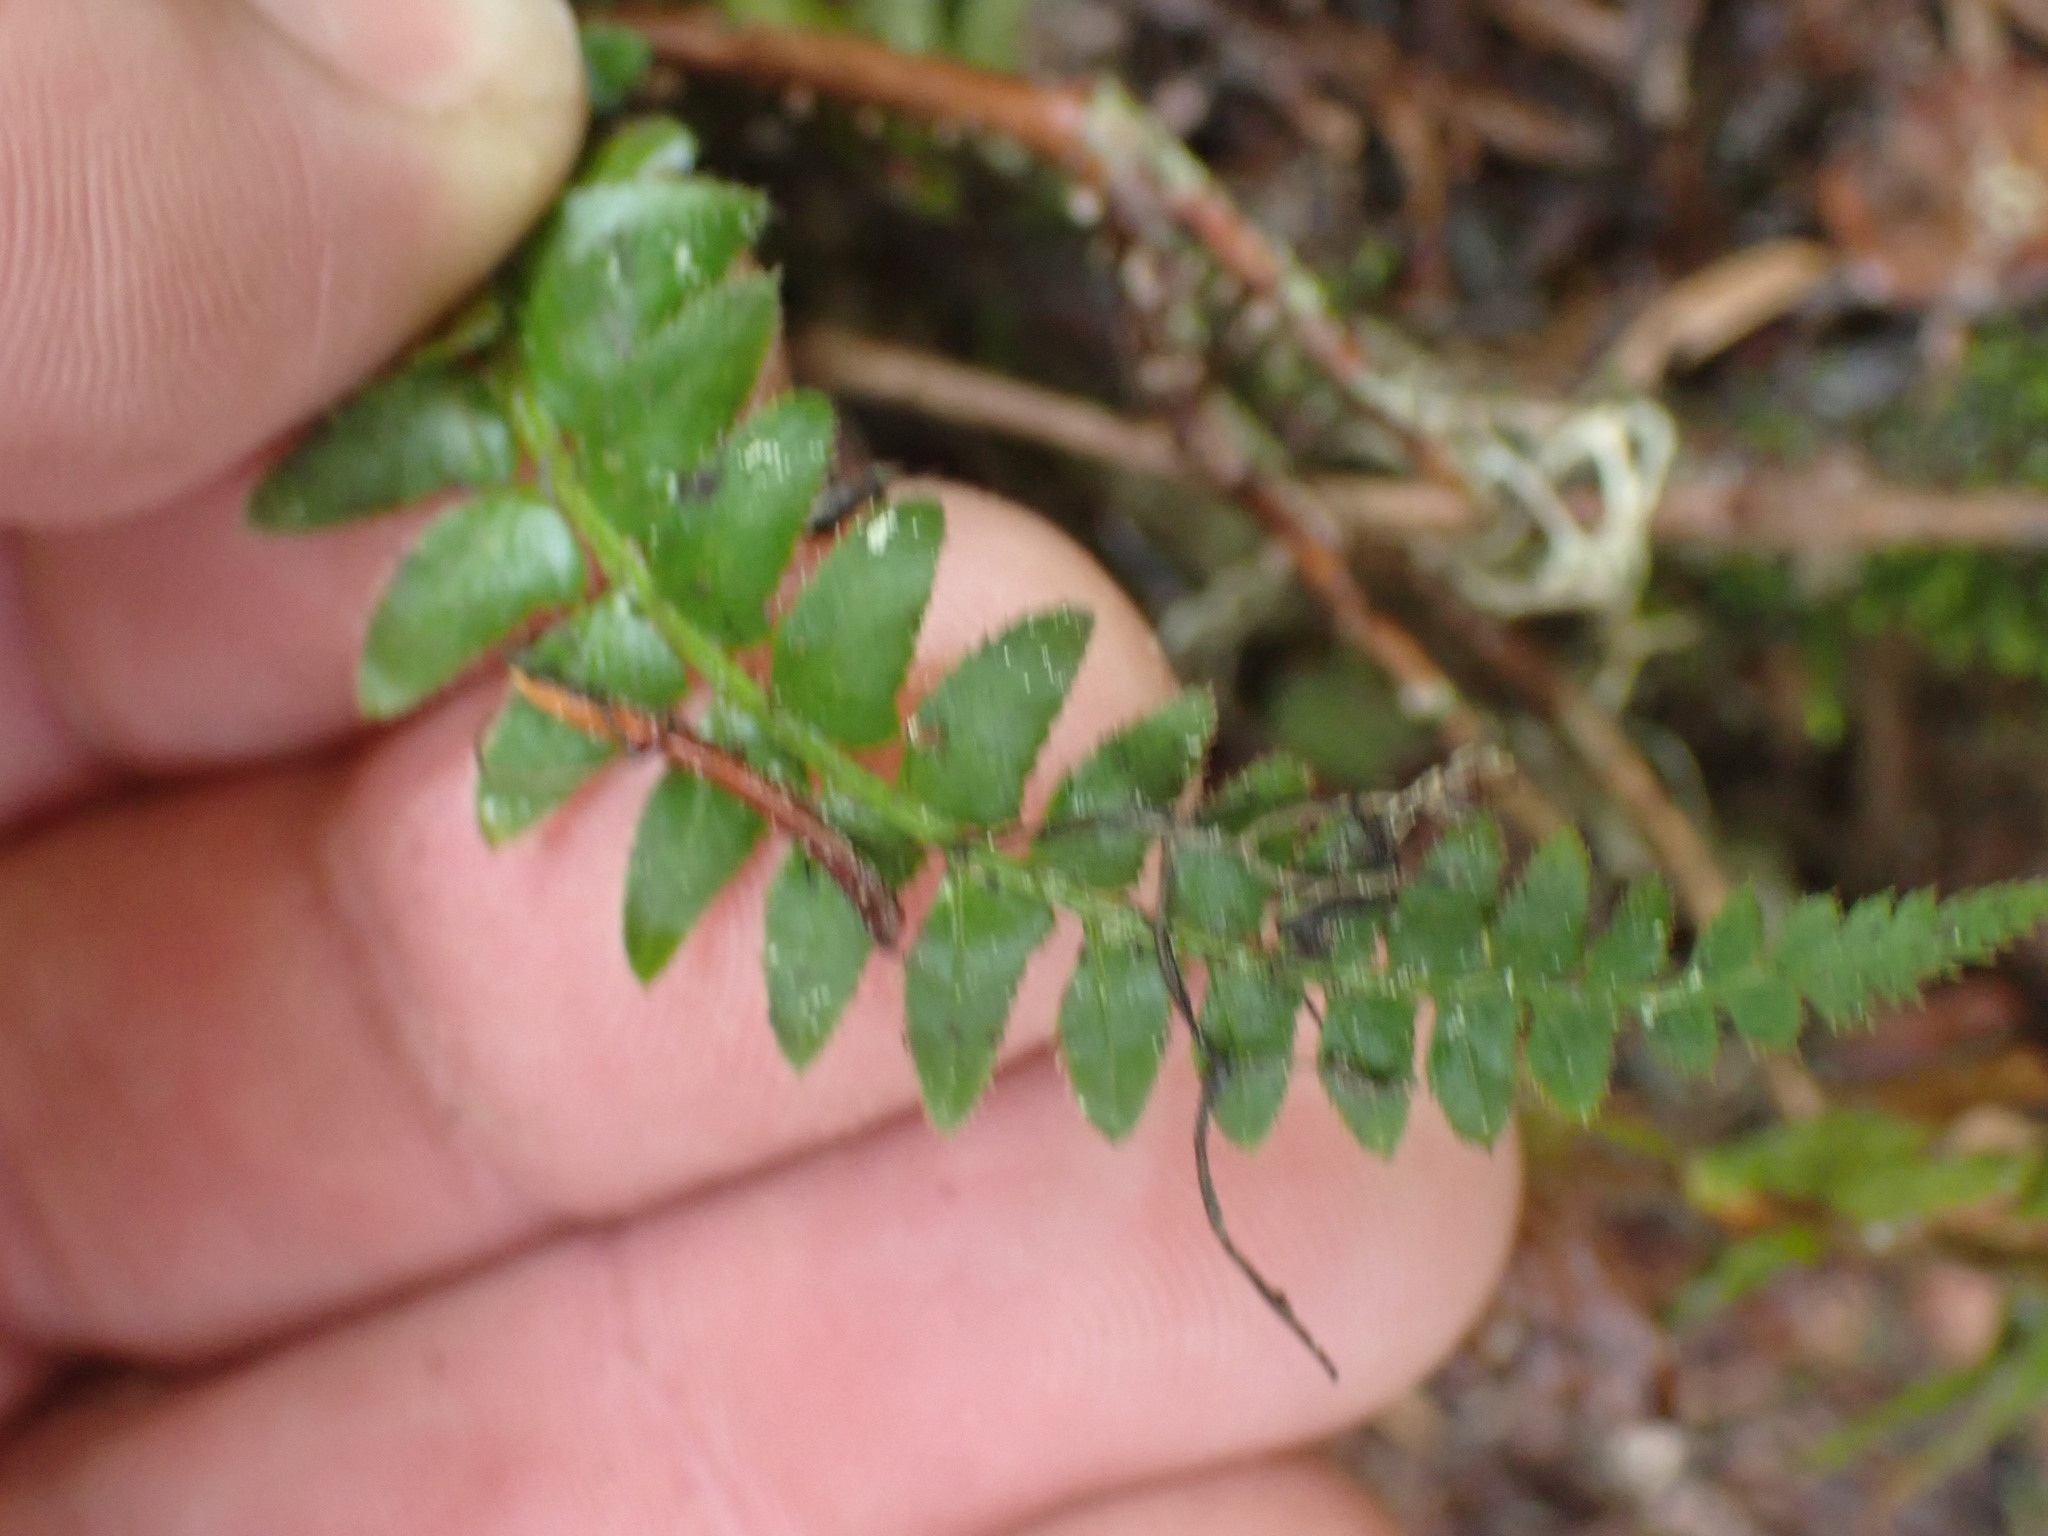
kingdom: Plantae
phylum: Tracheophyta
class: Polypodiopsida
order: Polypodiales
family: Dryopteridaceae
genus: Polystichum
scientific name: Polystichum munitum
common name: Western sword-fern
